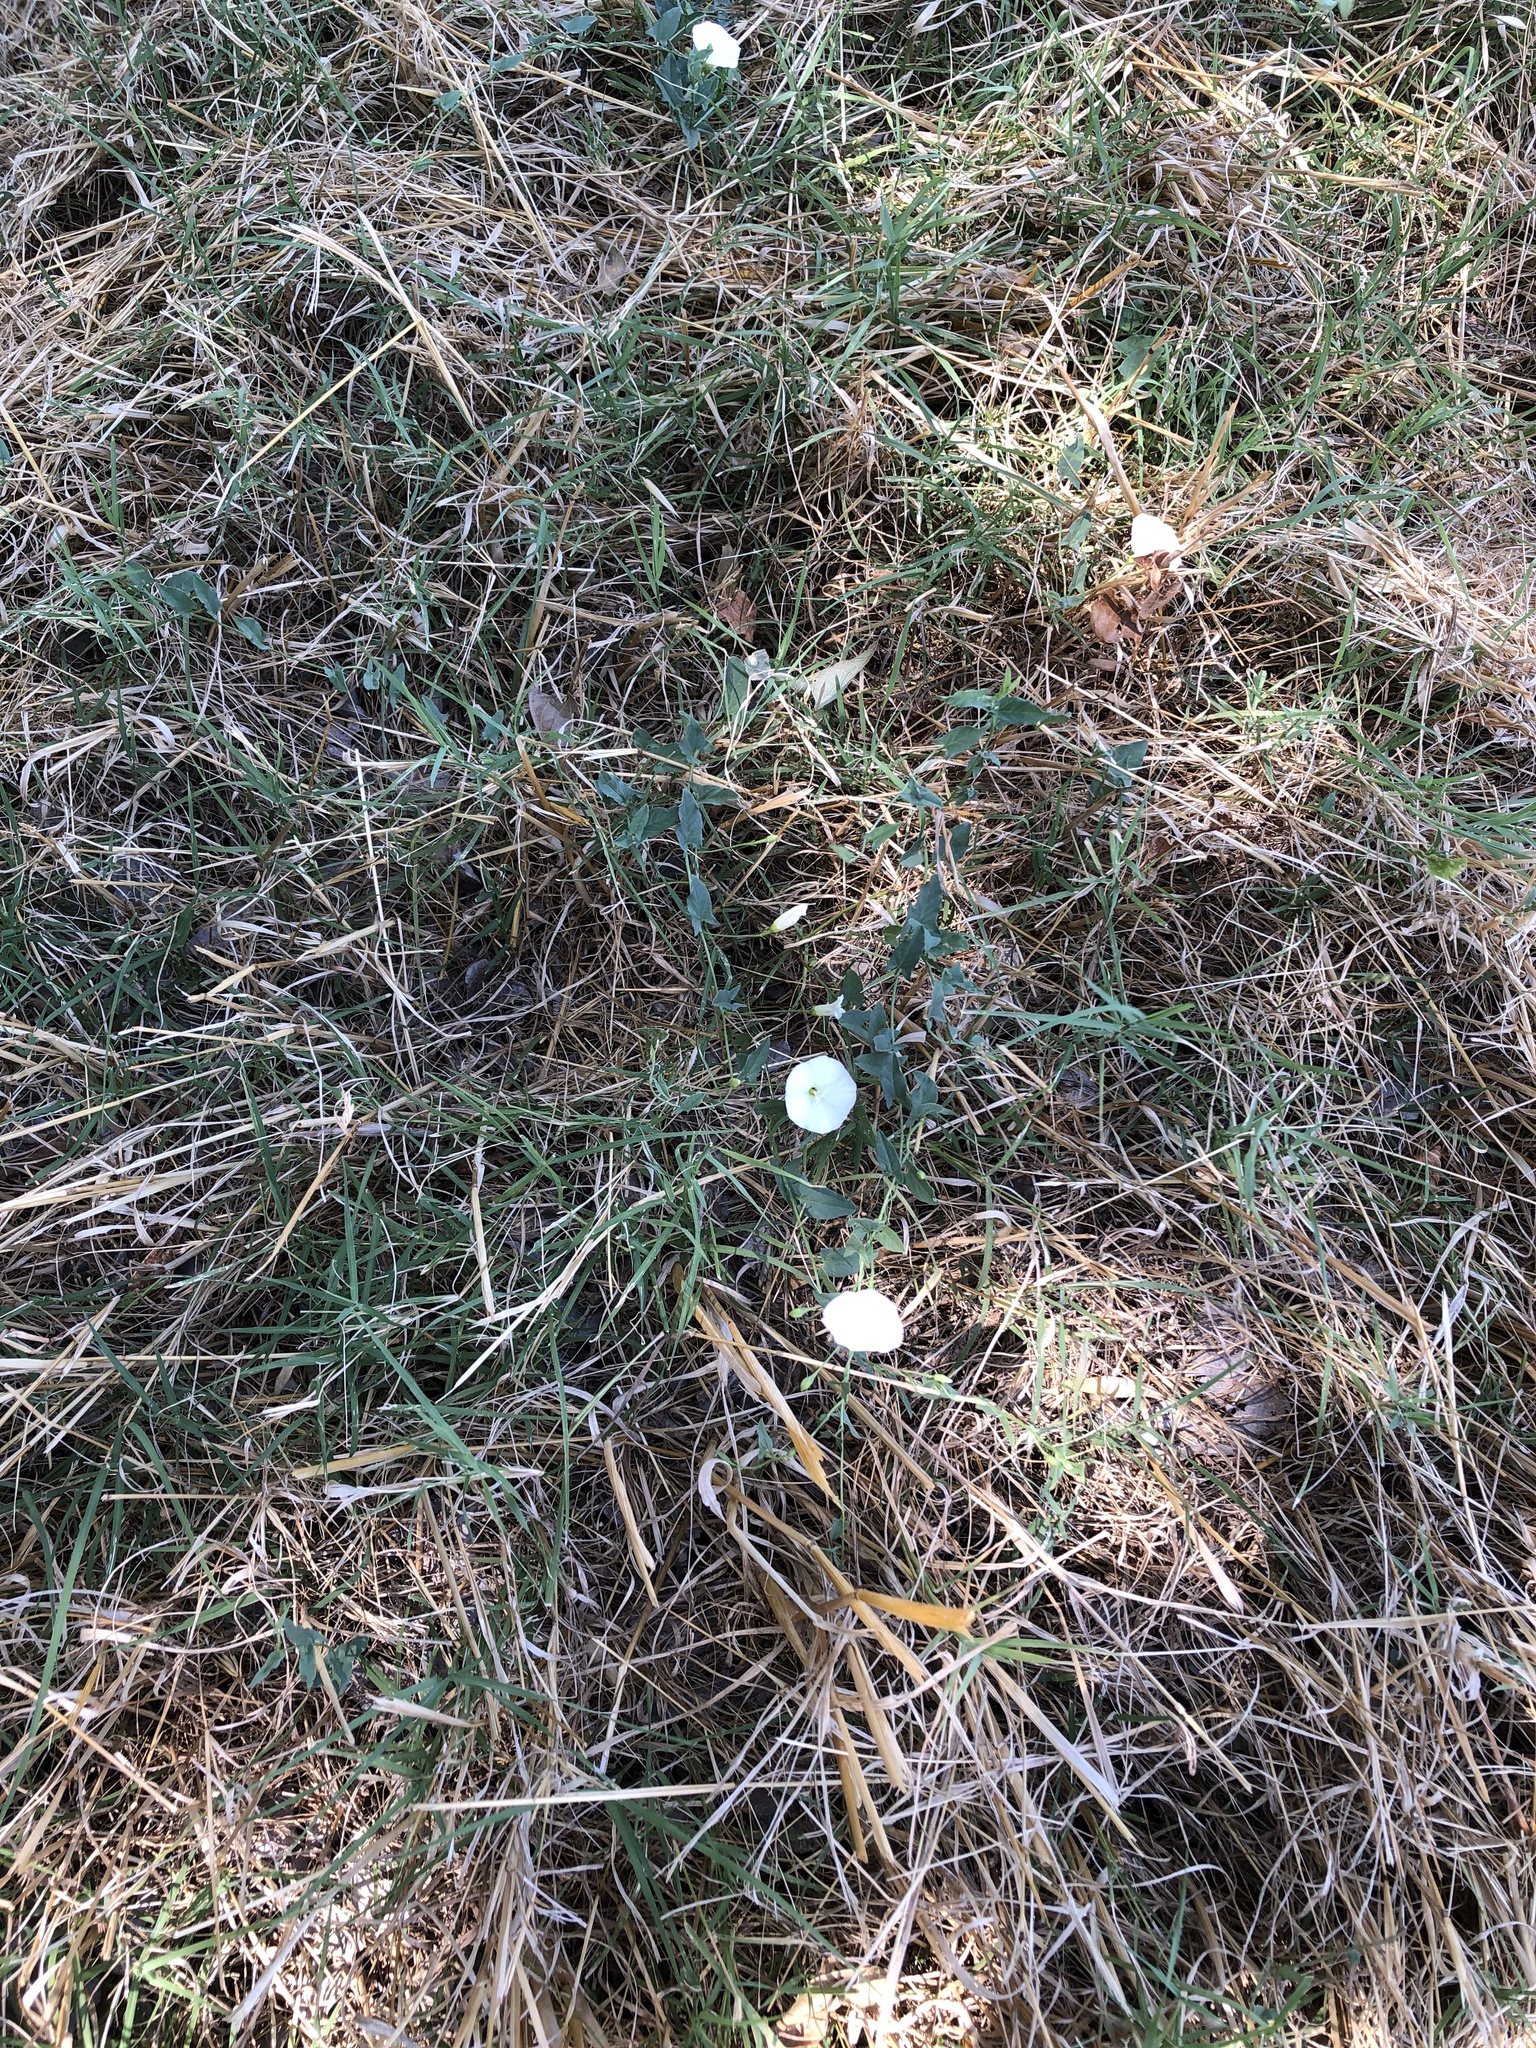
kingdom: Plantae
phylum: Tracheophyta
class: Magnoliopsida
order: Solanales
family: Convolvulaceae
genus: Convolvulus
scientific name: Convolvulus arvensis
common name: Field bindweed
